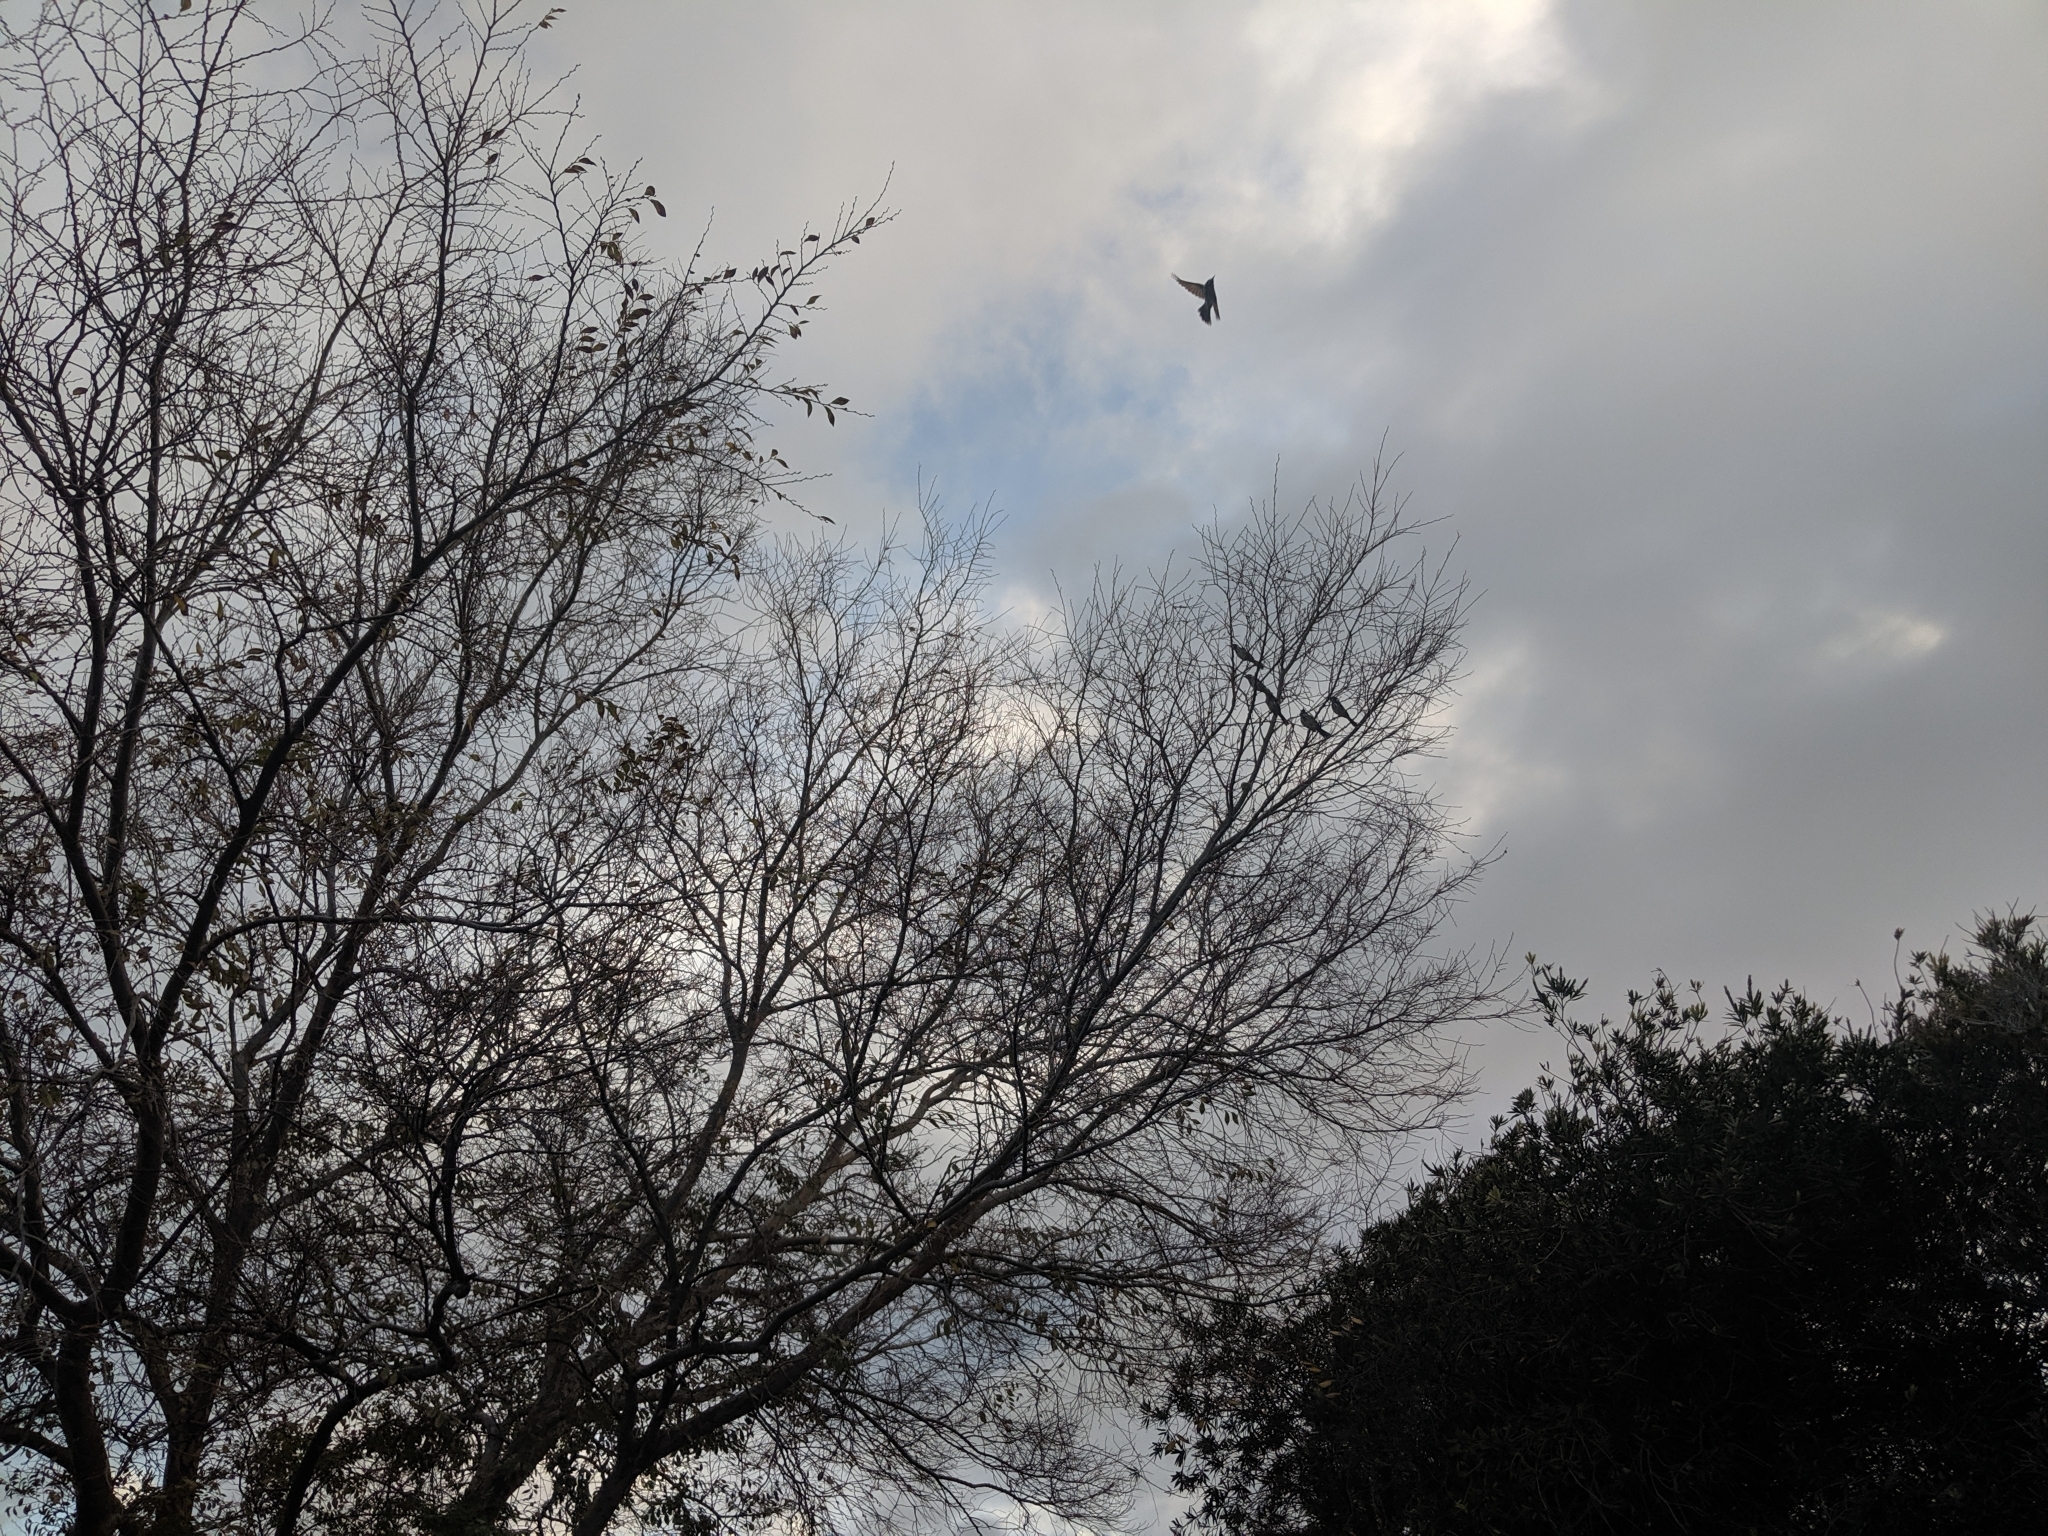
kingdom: Animalia
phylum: Chordata
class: Aves
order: Passeriformes
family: Meliphagidae
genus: Phylidonyris
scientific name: Phylidonyris novaehollandiae
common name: New holland honeyeater
